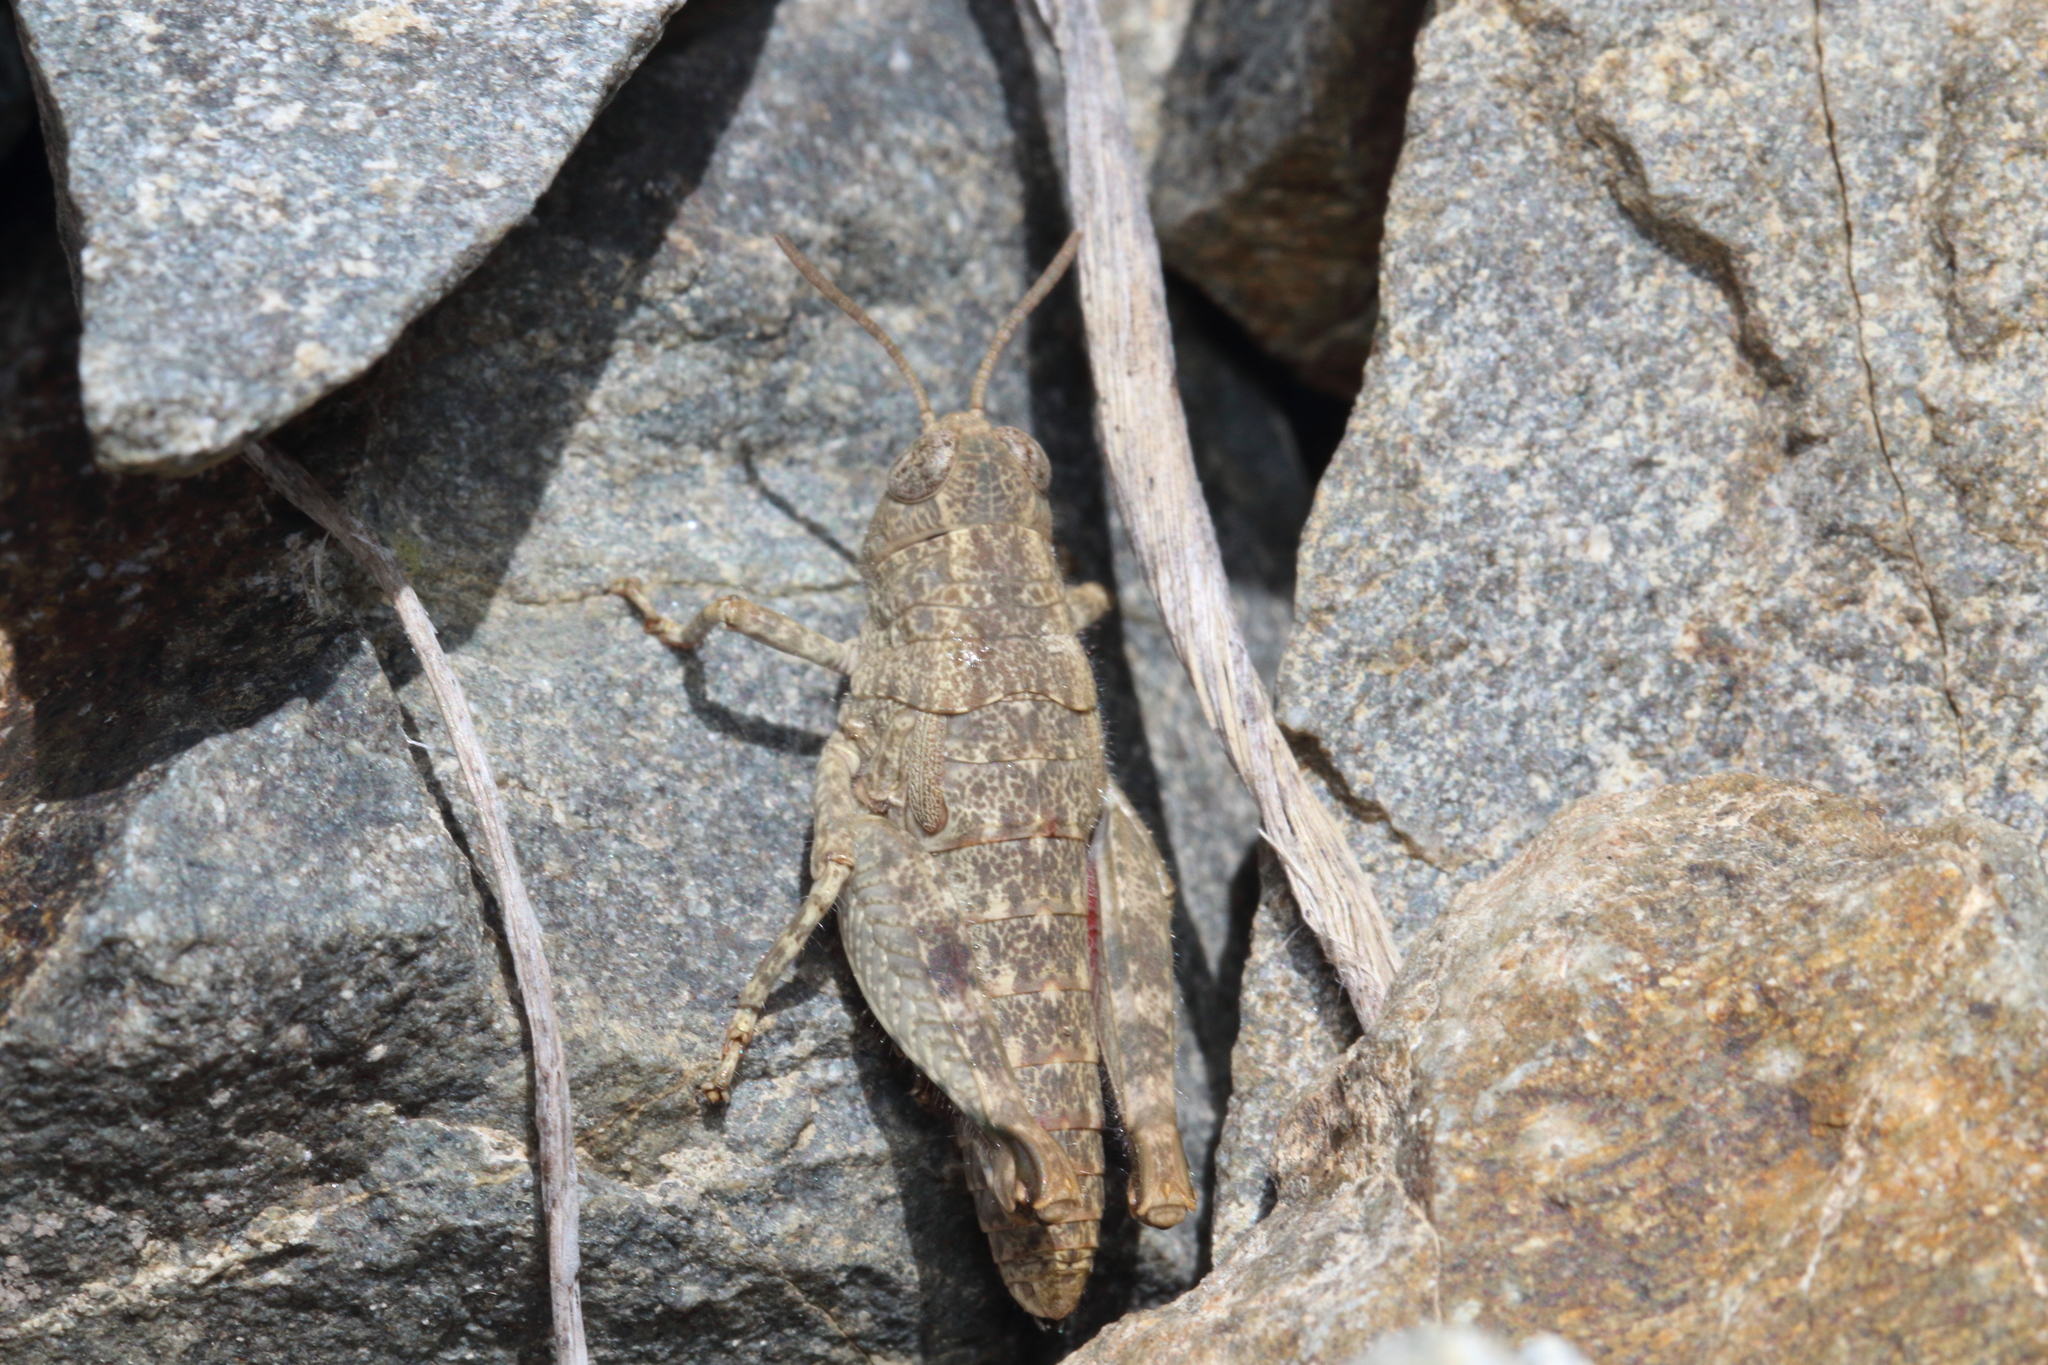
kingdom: Animalia
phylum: Arthropoda
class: Insecta
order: Orthoptera
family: Acrididae
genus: Sigaus
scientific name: Sigaus
